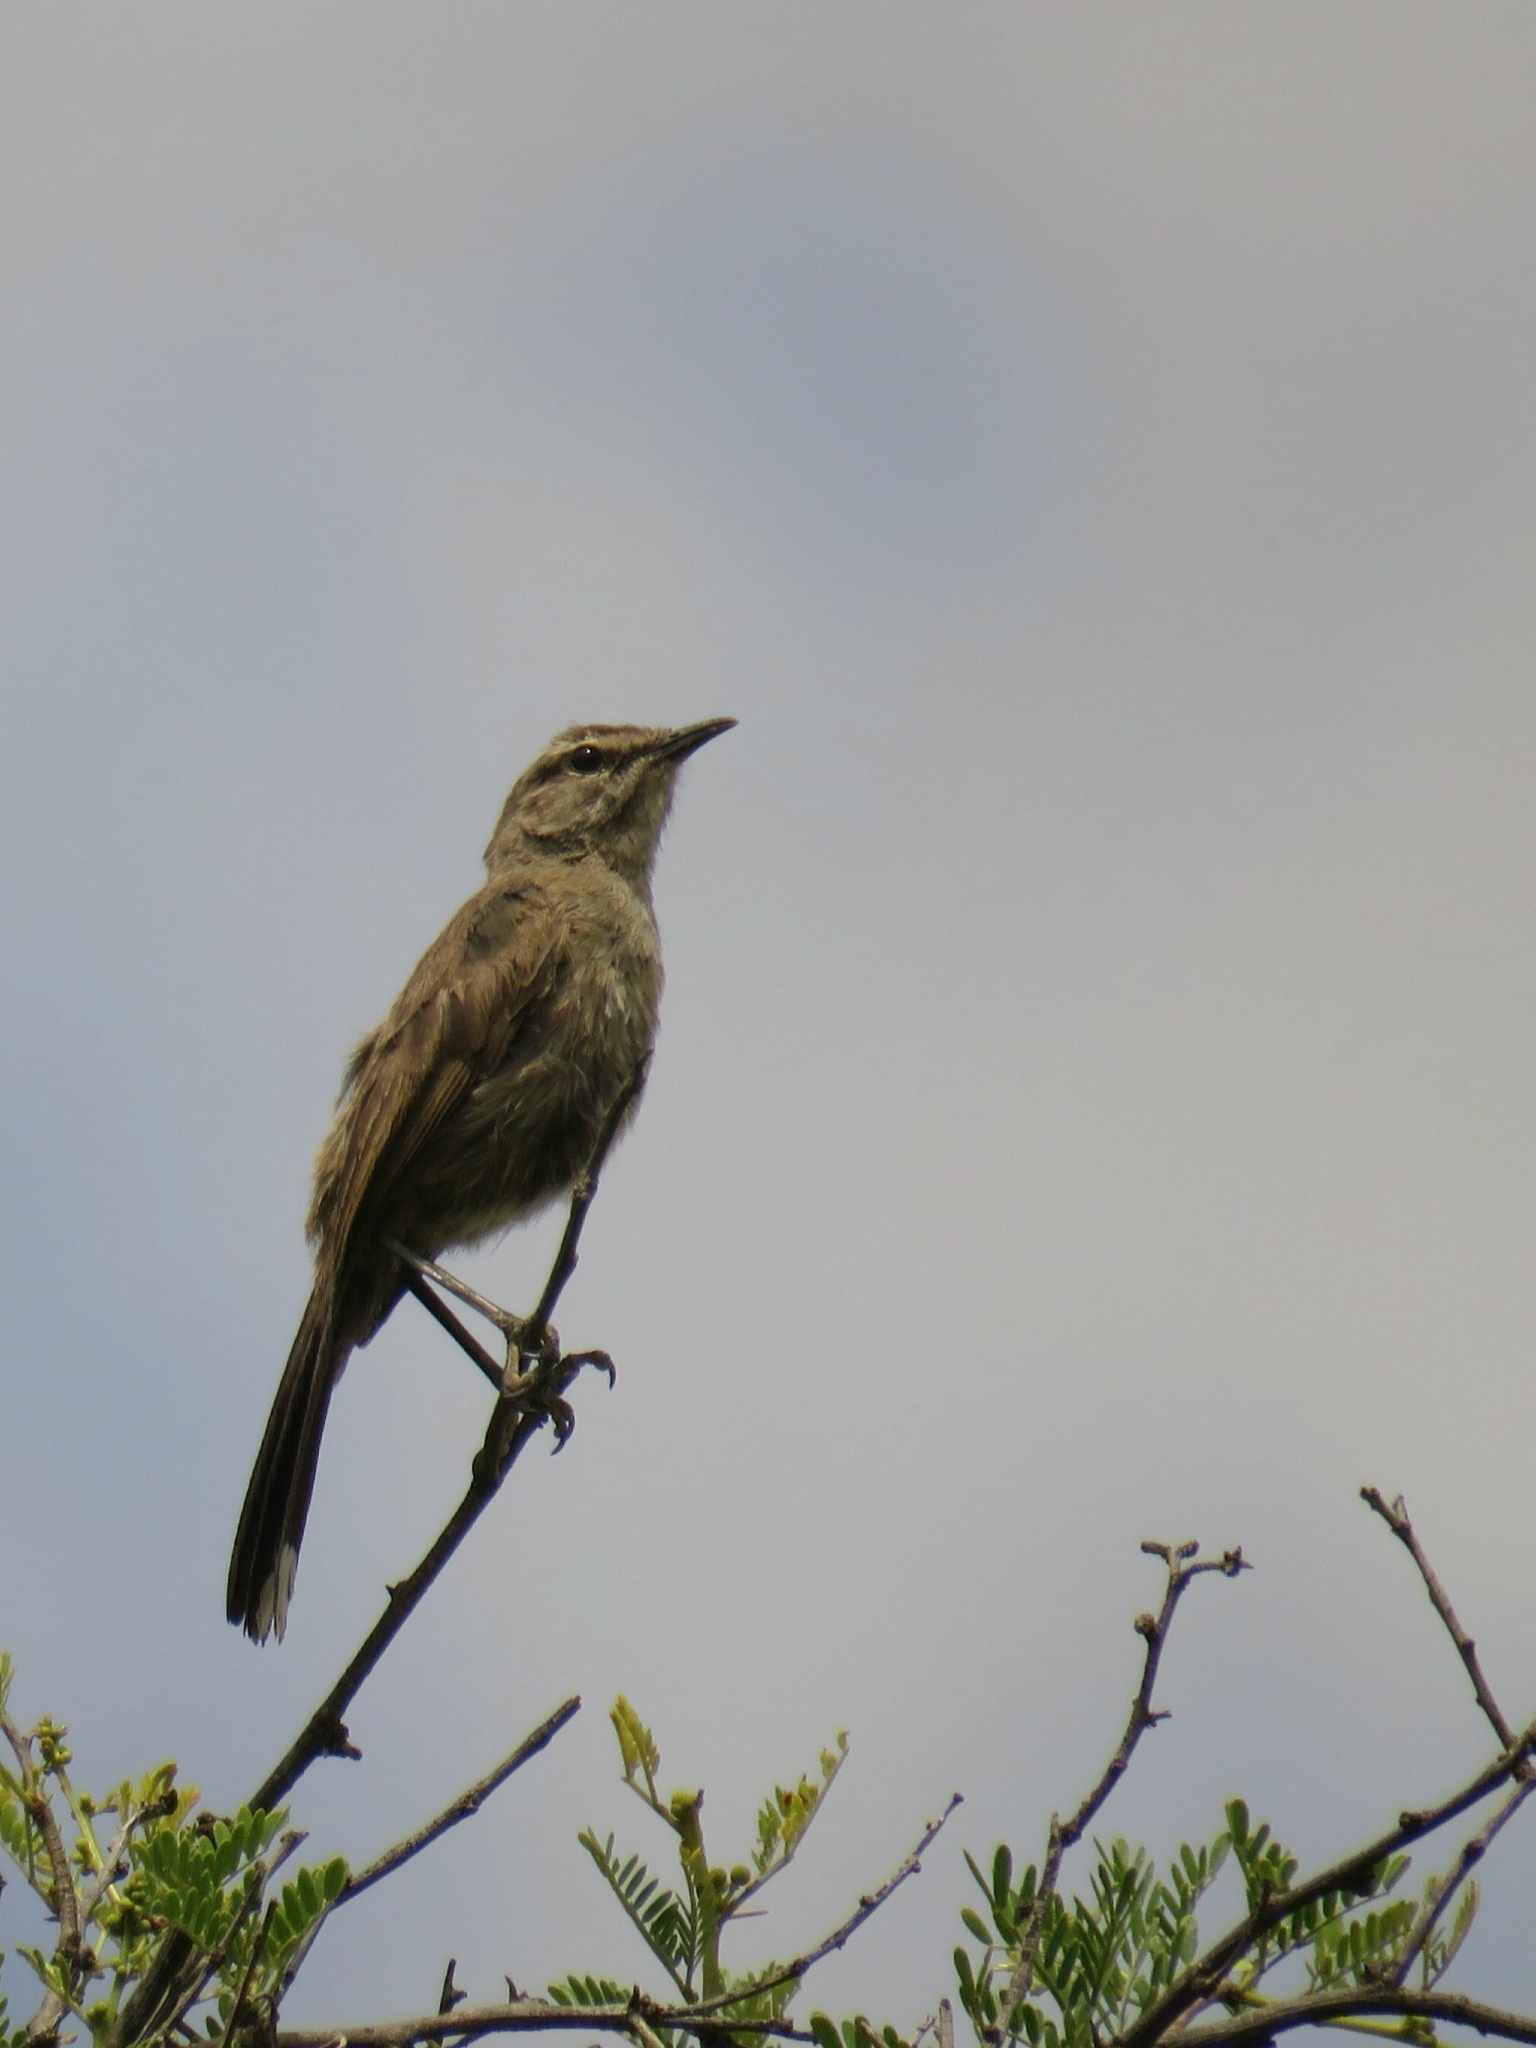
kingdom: Animalia
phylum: Chordata
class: Aves
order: Passeriformes
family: Muscicapidae
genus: Erythropygia
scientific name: Erythropygia coryphoeus
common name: Karoo scrub robin
